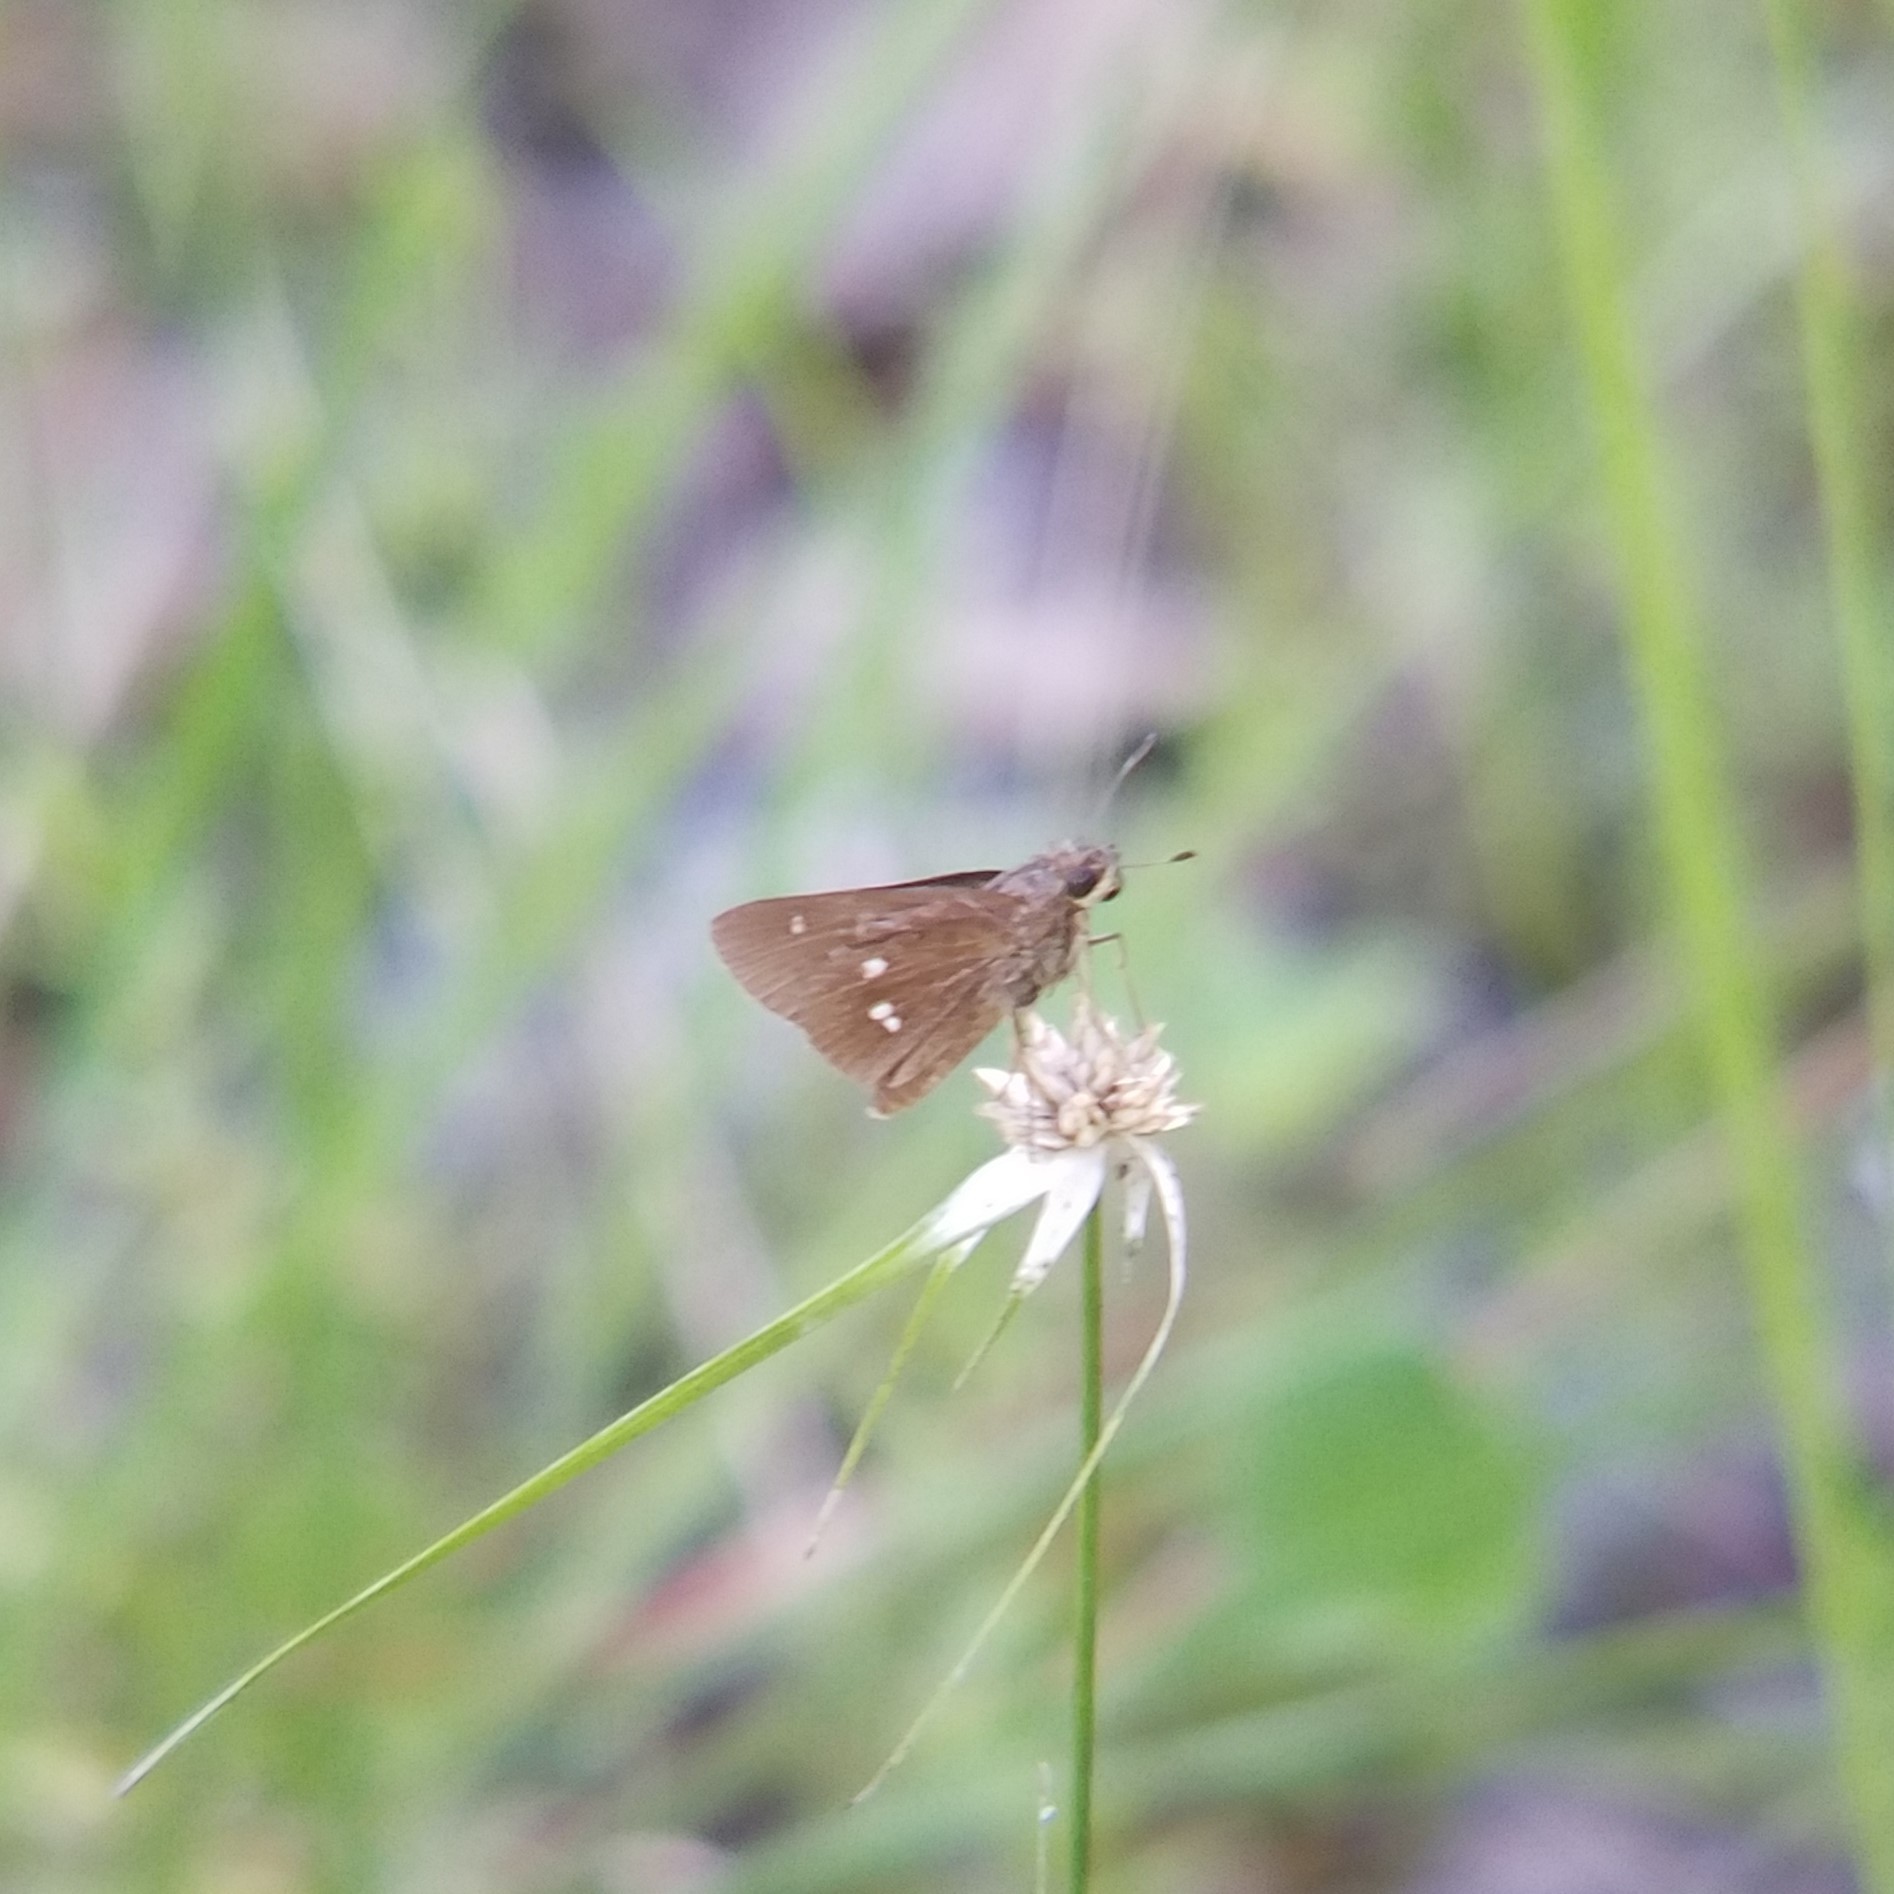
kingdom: Animalia
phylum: Arthropoda
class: Insecta
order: Lepidoptera
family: Hesperiidae
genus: Oligoria
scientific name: Oligoria maculata
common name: Twin-spot skipper
